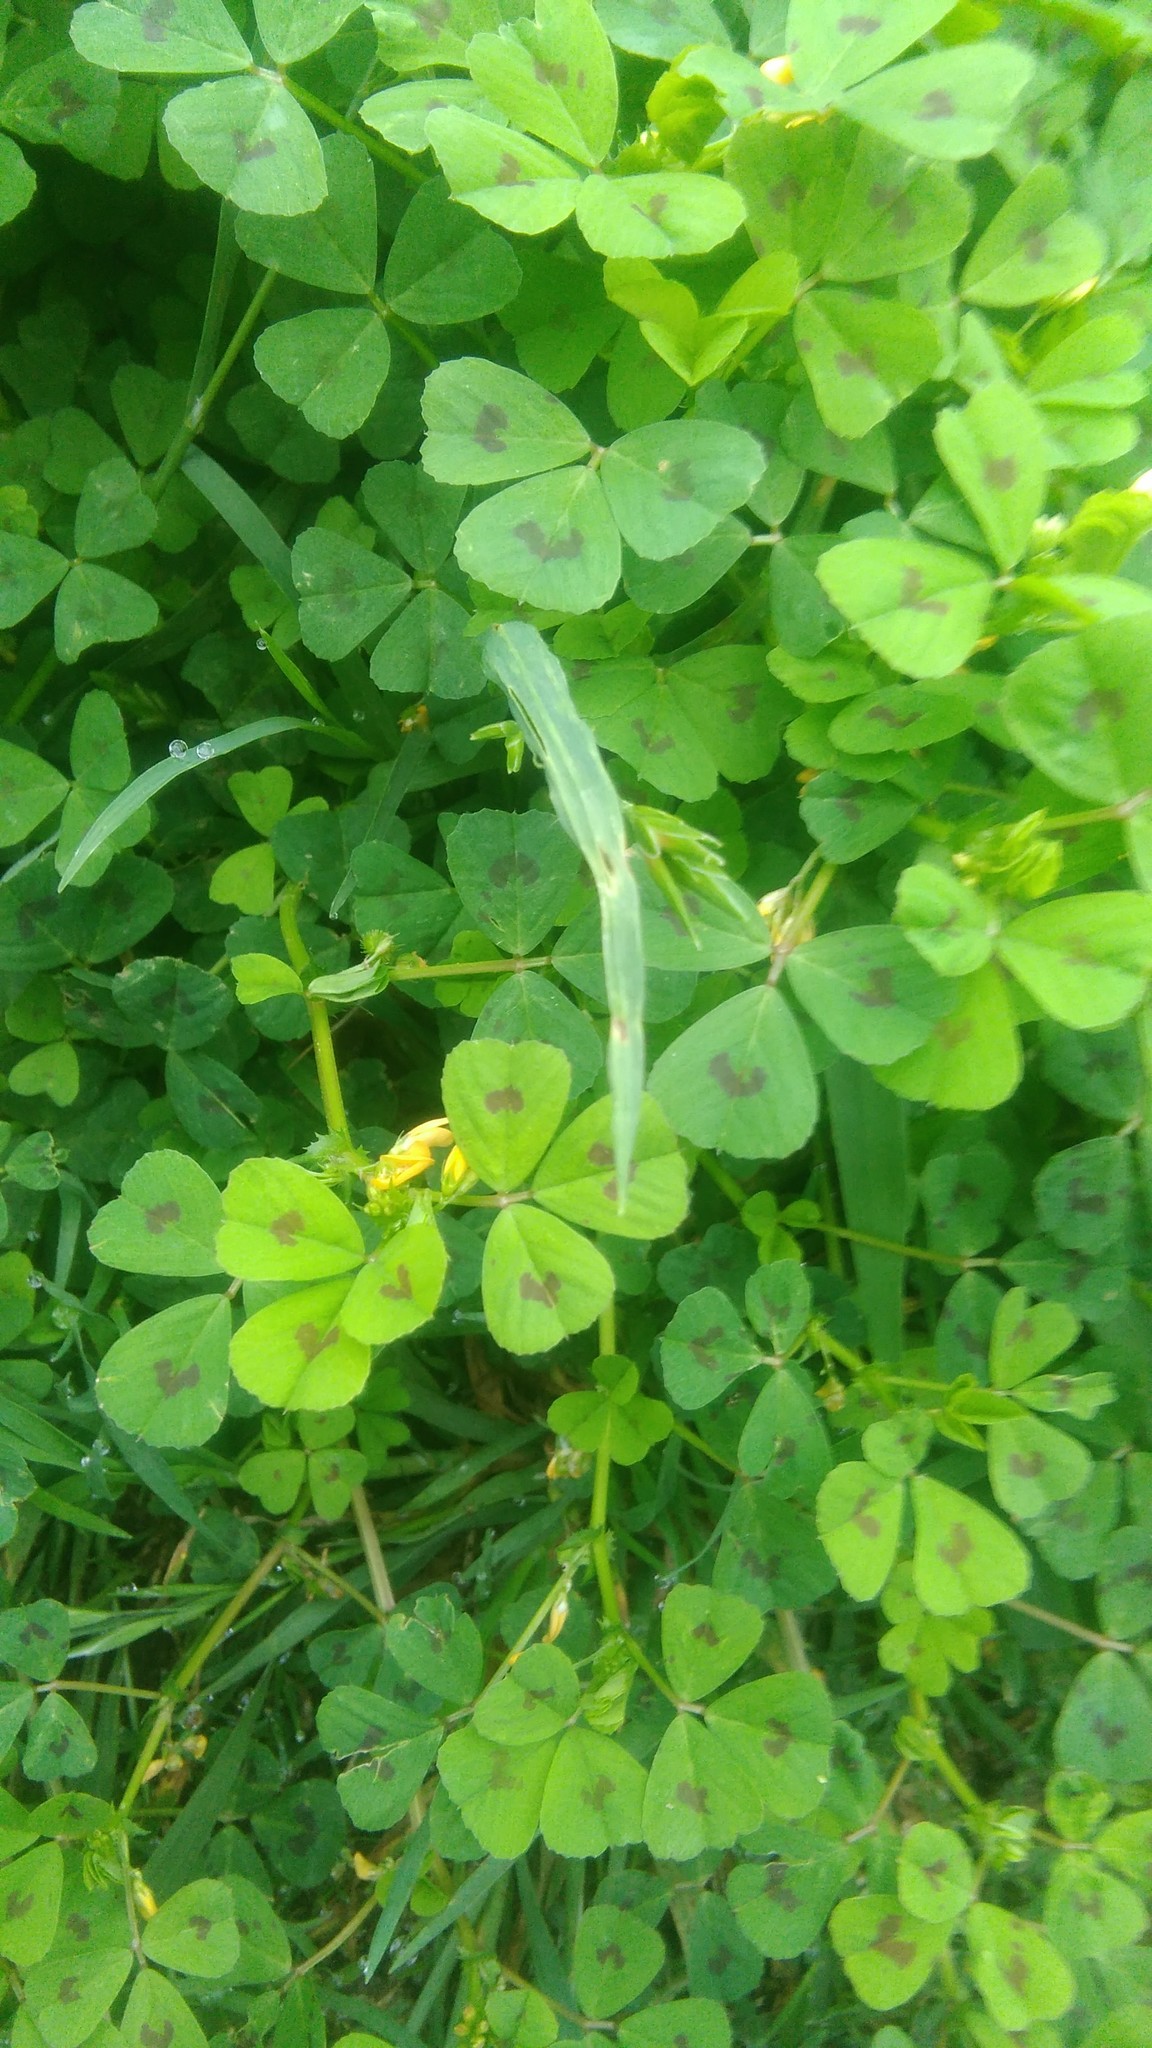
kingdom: Plantae
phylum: Tracheophyta
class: Magnoliopsida
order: Fabales
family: Fabaceae
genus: Medicago
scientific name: Medicago arabica
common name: Spotted medick
